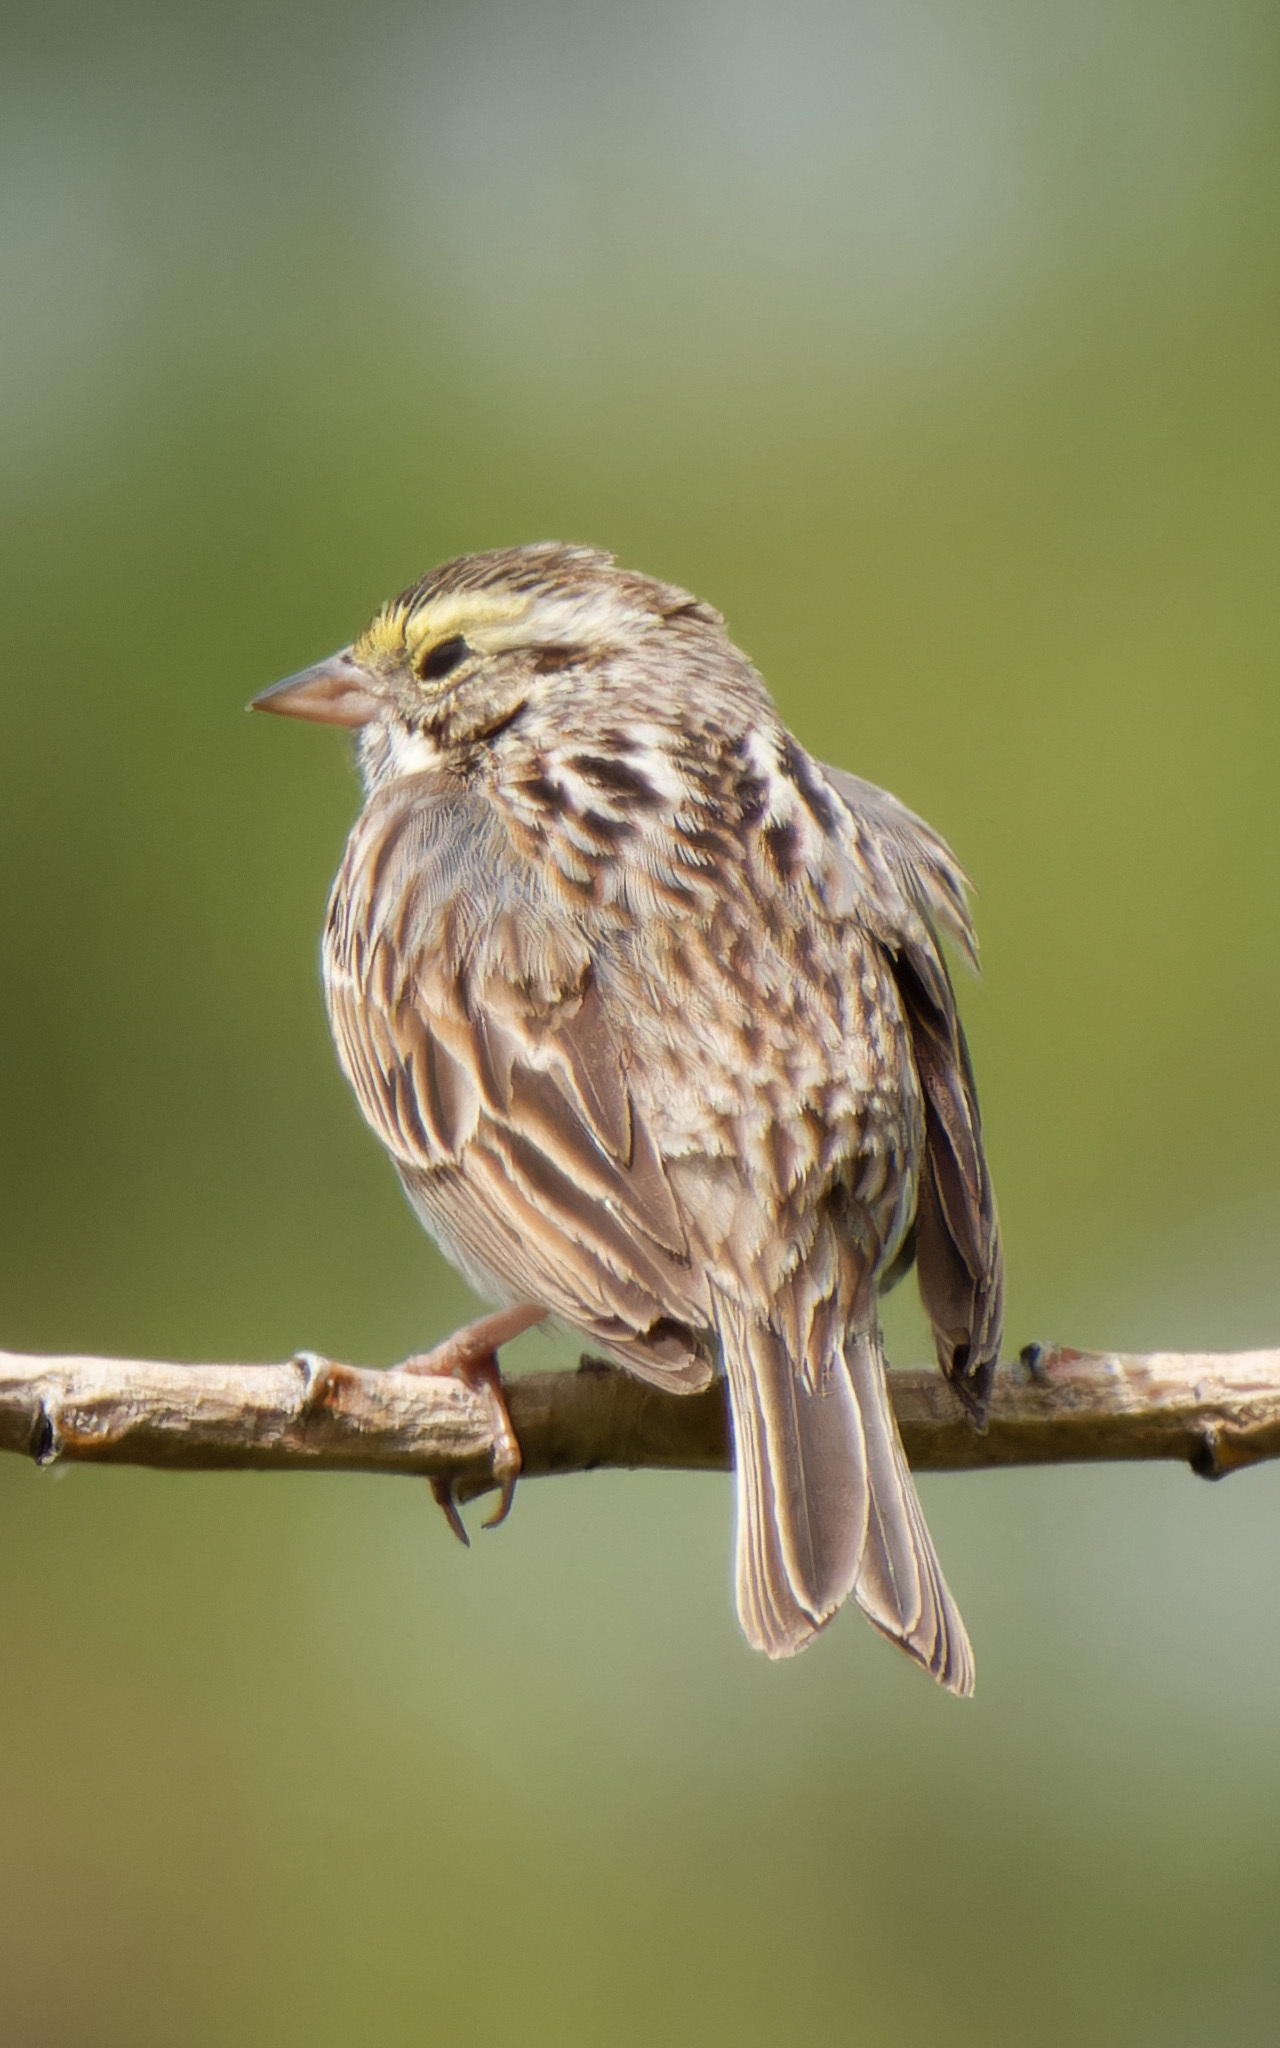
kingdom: Animalia
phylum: Chordata
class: Aves
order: Passeriformes
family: Passerellidae
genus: Passerculus
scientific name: Passerculus sandwichensis
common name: Savannah sparrow
